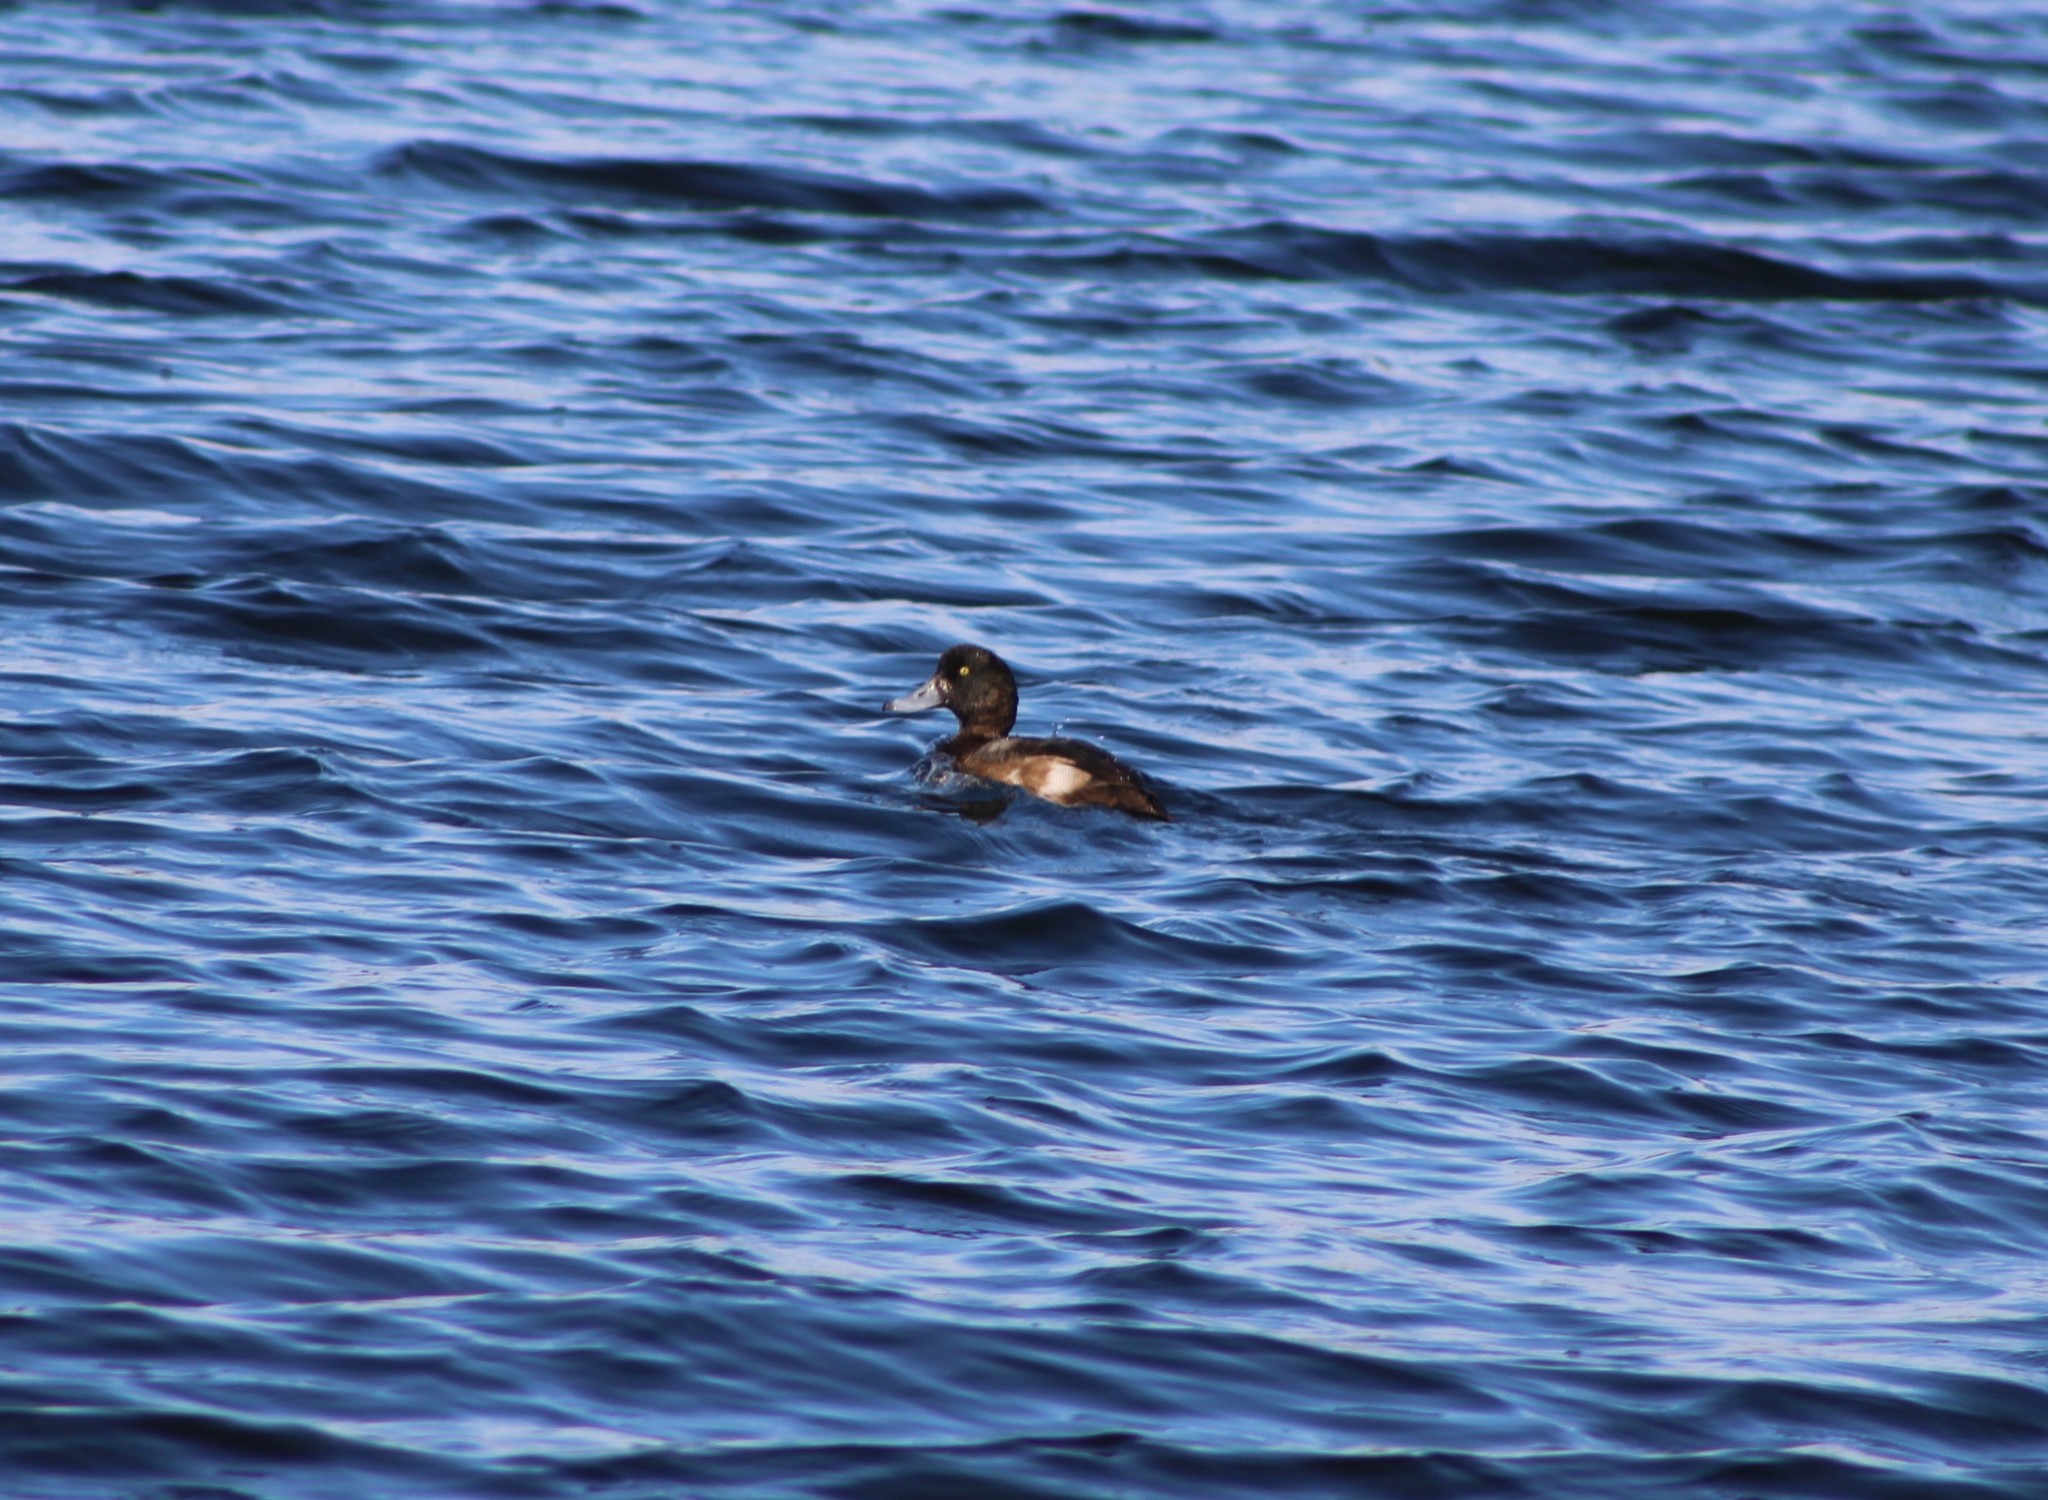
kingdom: Animalia
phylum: Chordata
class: Aves
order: Anseriformes
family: Anatidae
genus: Aythya
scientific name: Aythya marila
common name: Greater scaup
